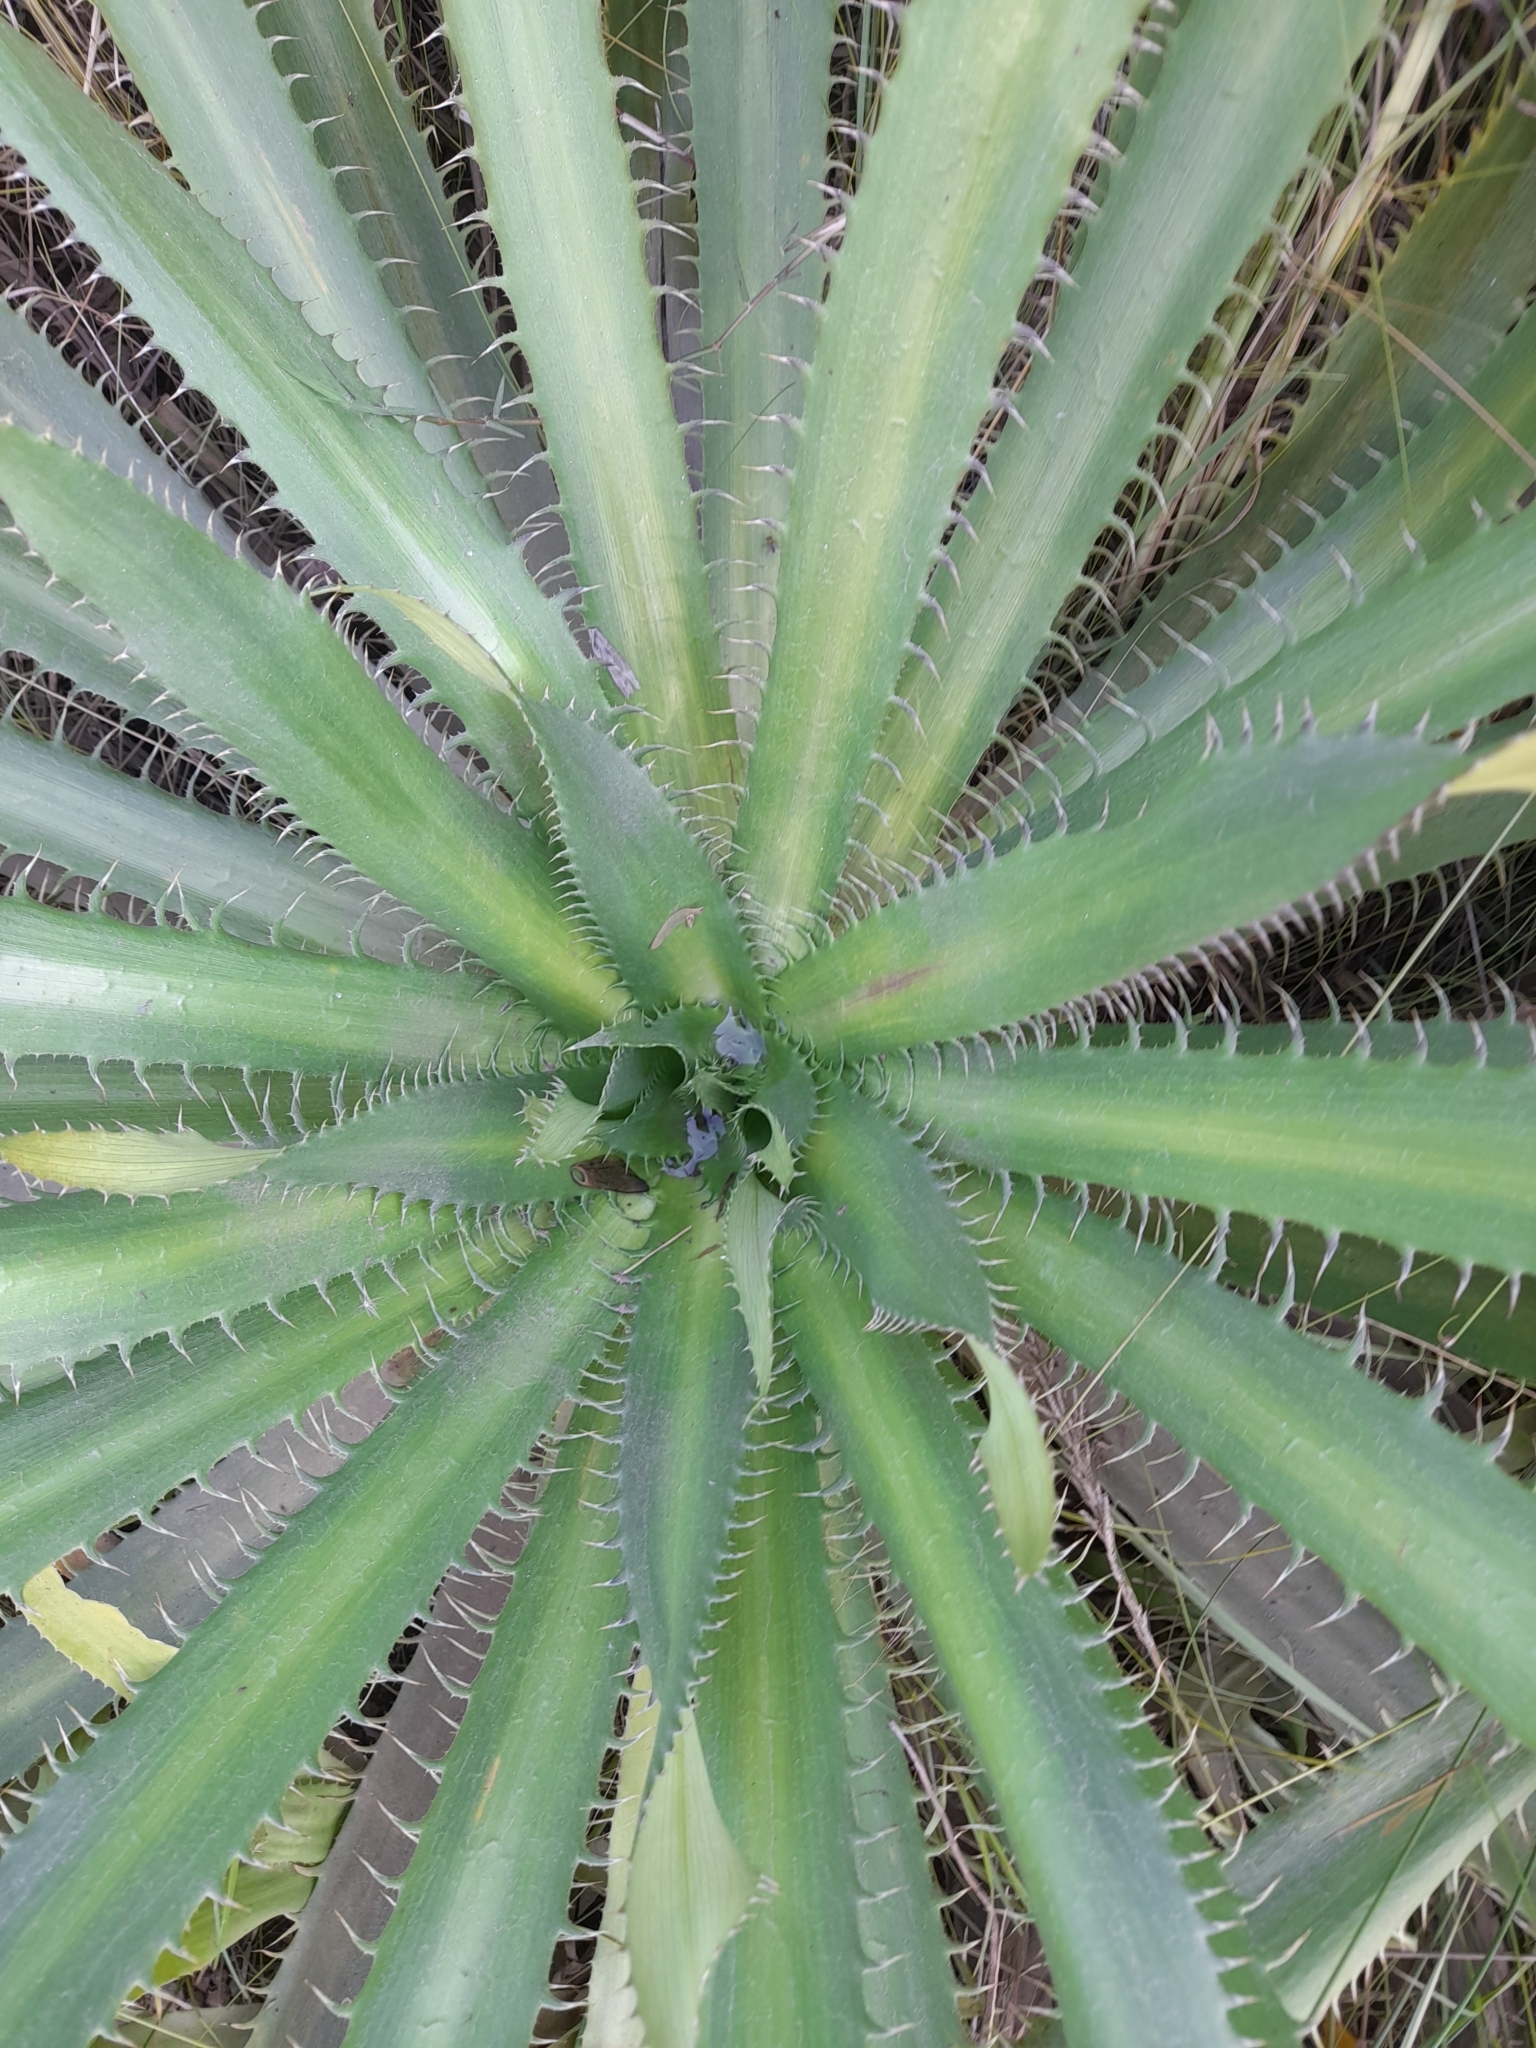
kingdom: Plantae
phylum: Tracheophyta
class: Magnoliopsida
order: Apiales
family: Apiaceae
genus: Eryngium
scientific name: Eryngium elegans
